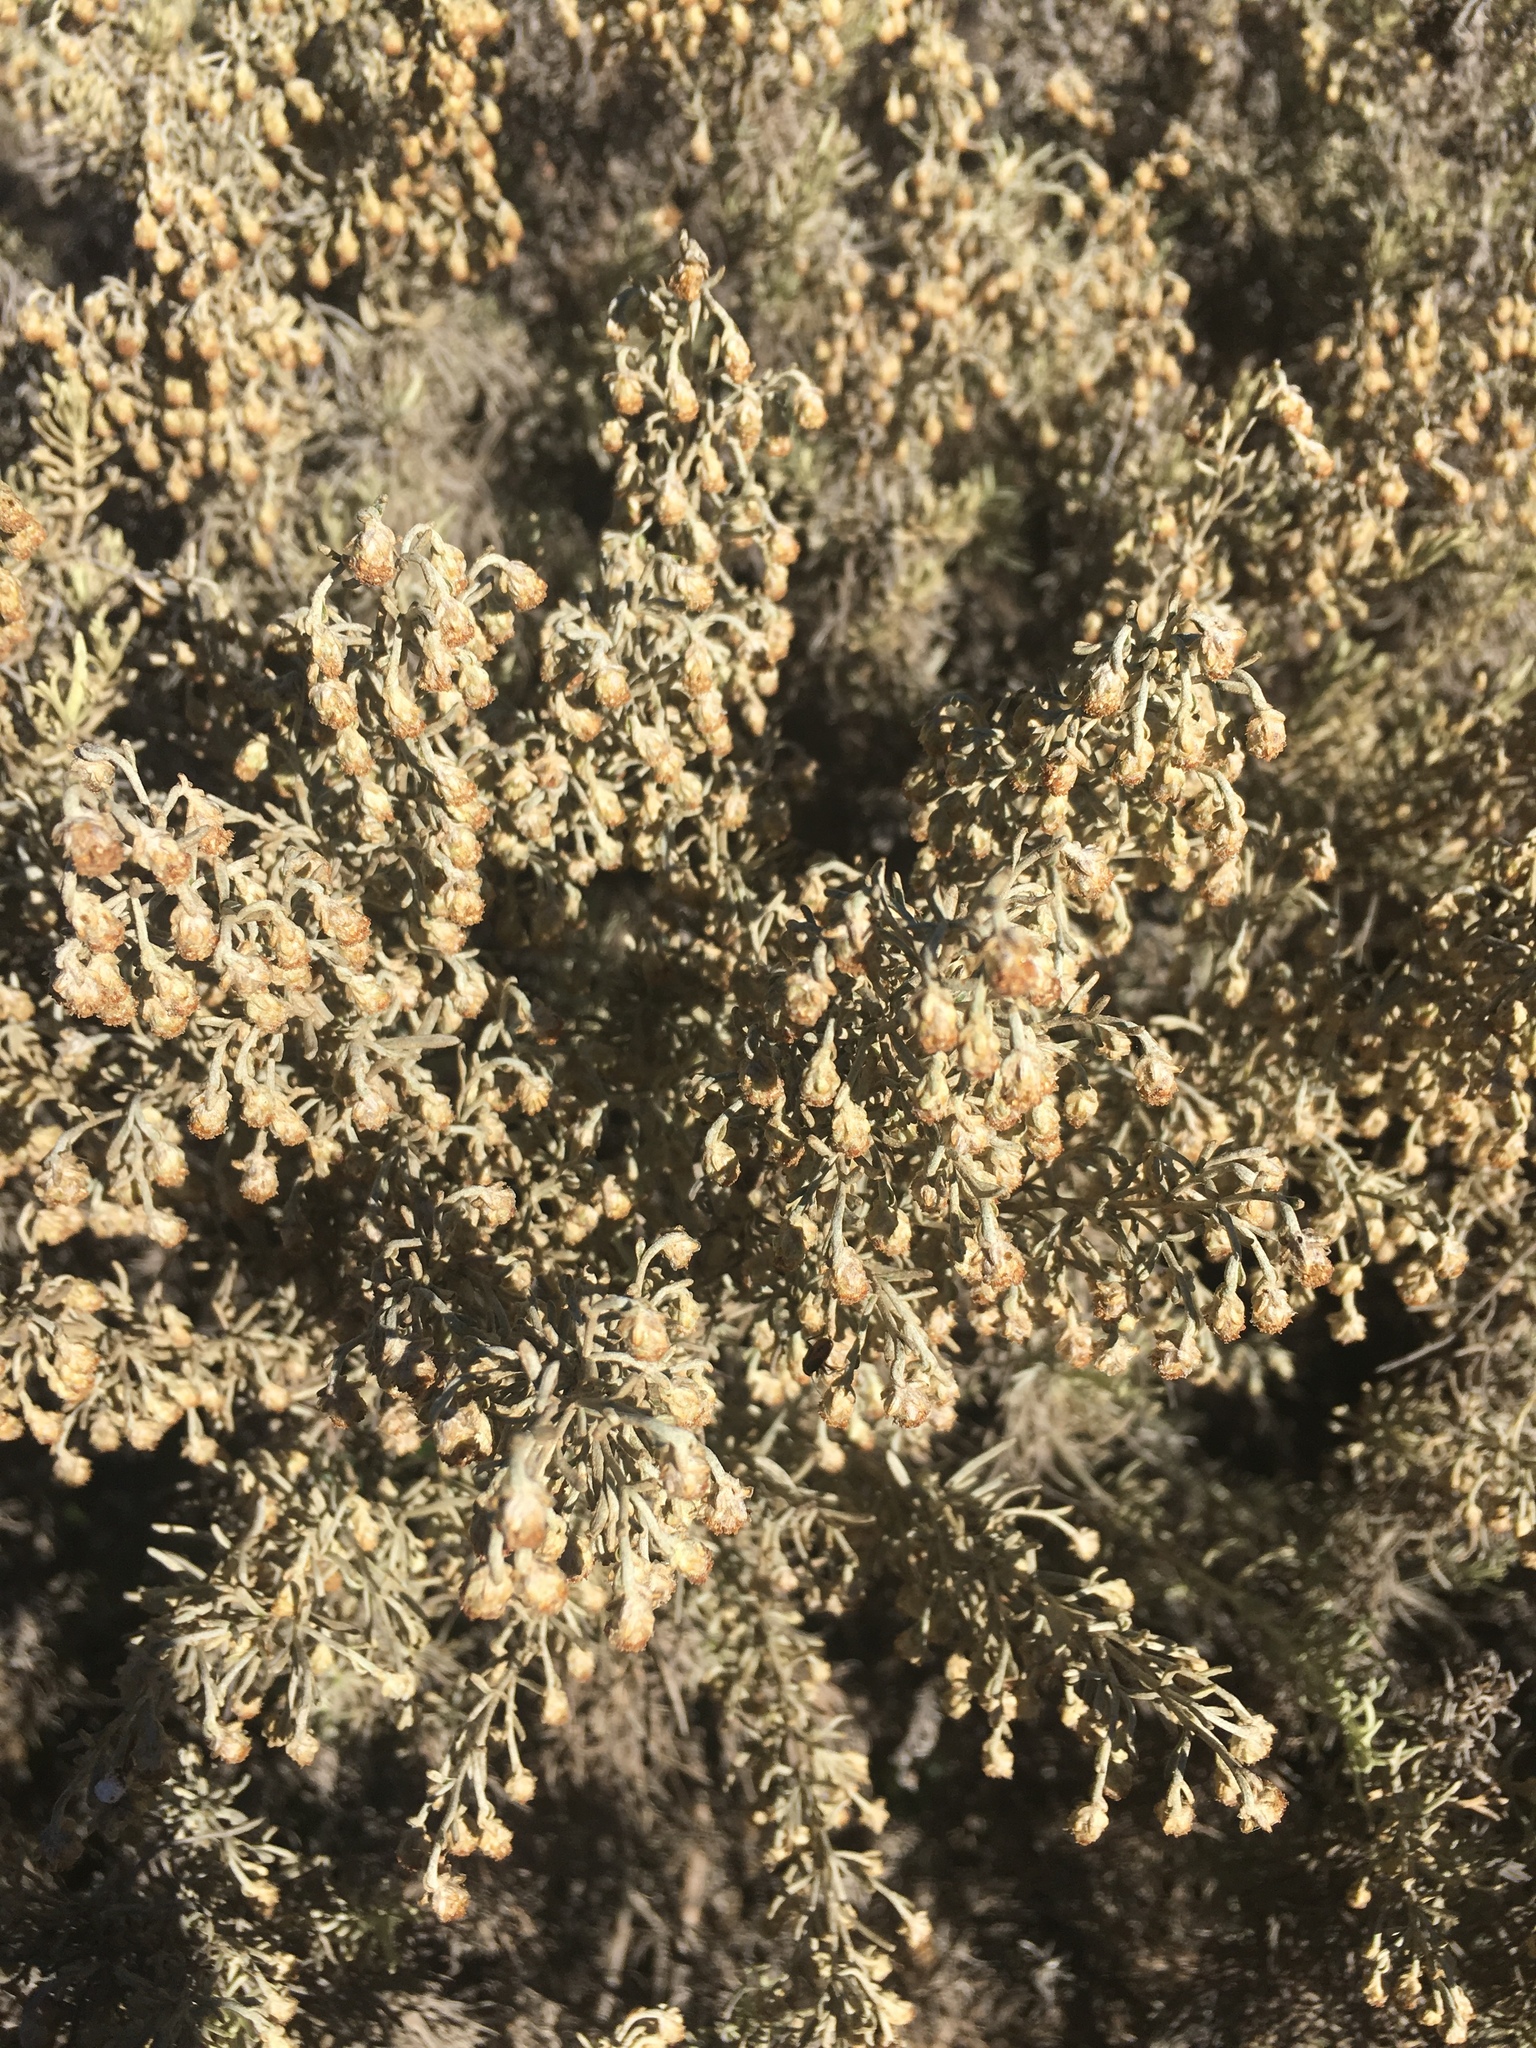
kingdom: Plantae
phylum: Tracheophyta
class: Magnoliopsida
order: Asterales
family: Asteraceae
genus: Artemisia
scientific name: Artemisia californica
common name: California sagebrush
